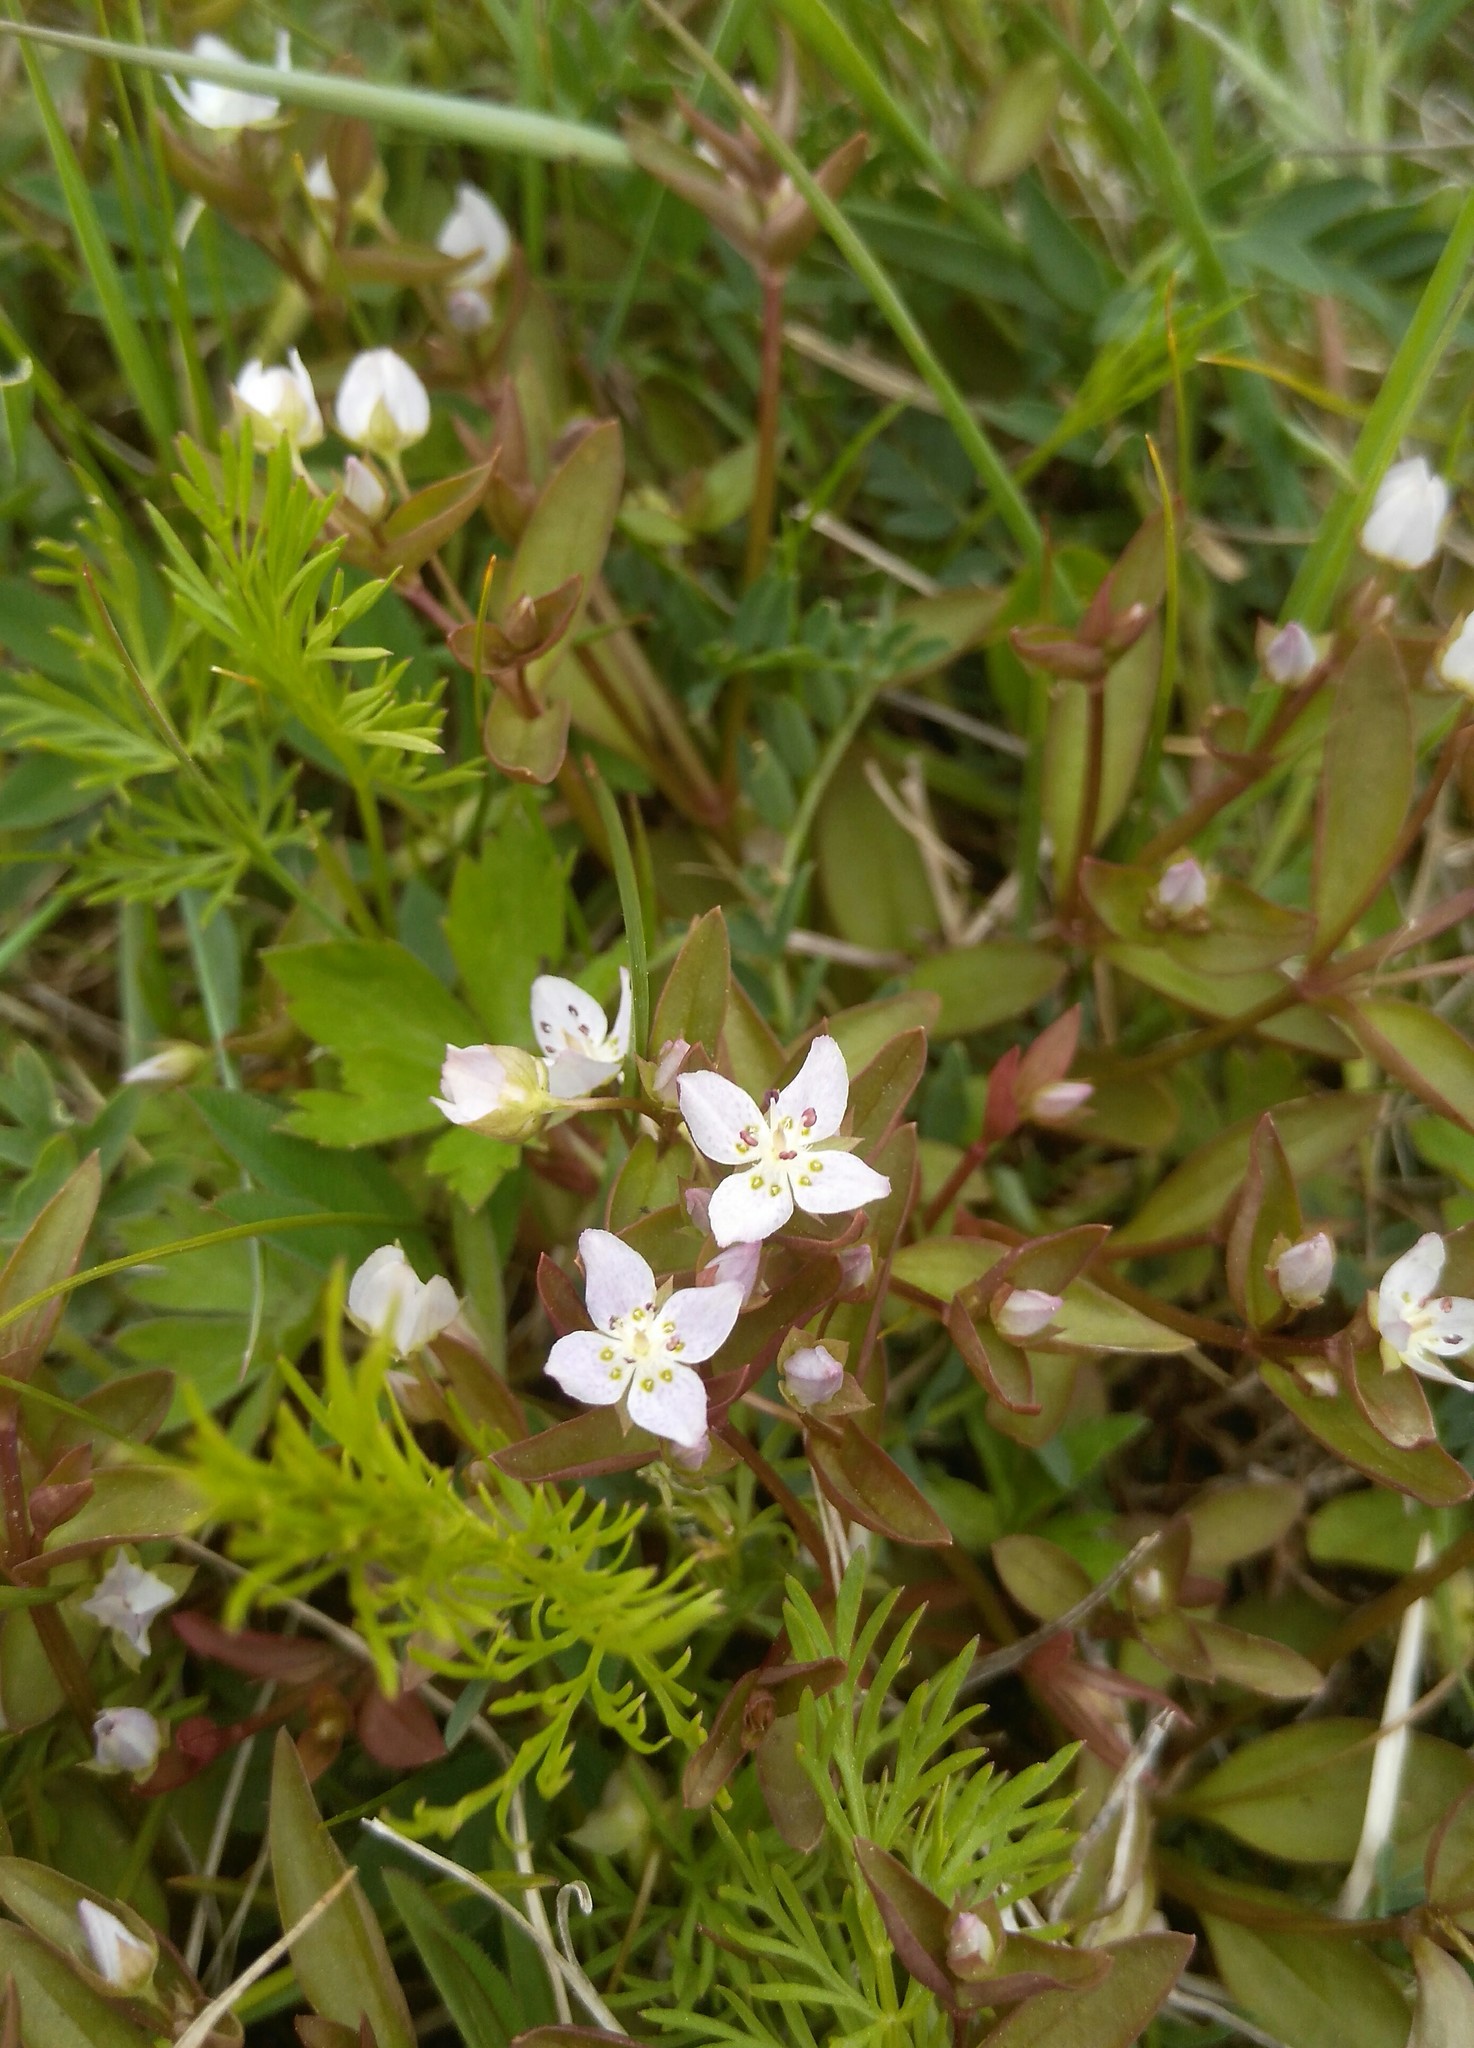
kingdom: Plantae
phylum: Tracheophyta
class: Magnoliopsida
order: Gentianales
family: Gentianaceae
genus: Swertia
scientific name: Swertia dichotoma
